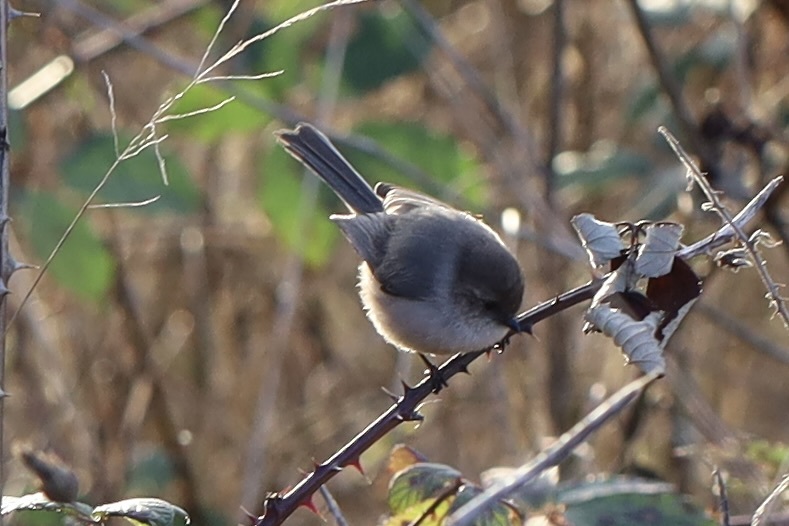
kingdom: Animalia
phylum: Chordata
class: Aves
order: Passeriformes
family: Aegithalidae
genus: Psaltriparus
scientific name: Psaltriparus minimus
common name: American bushtit
